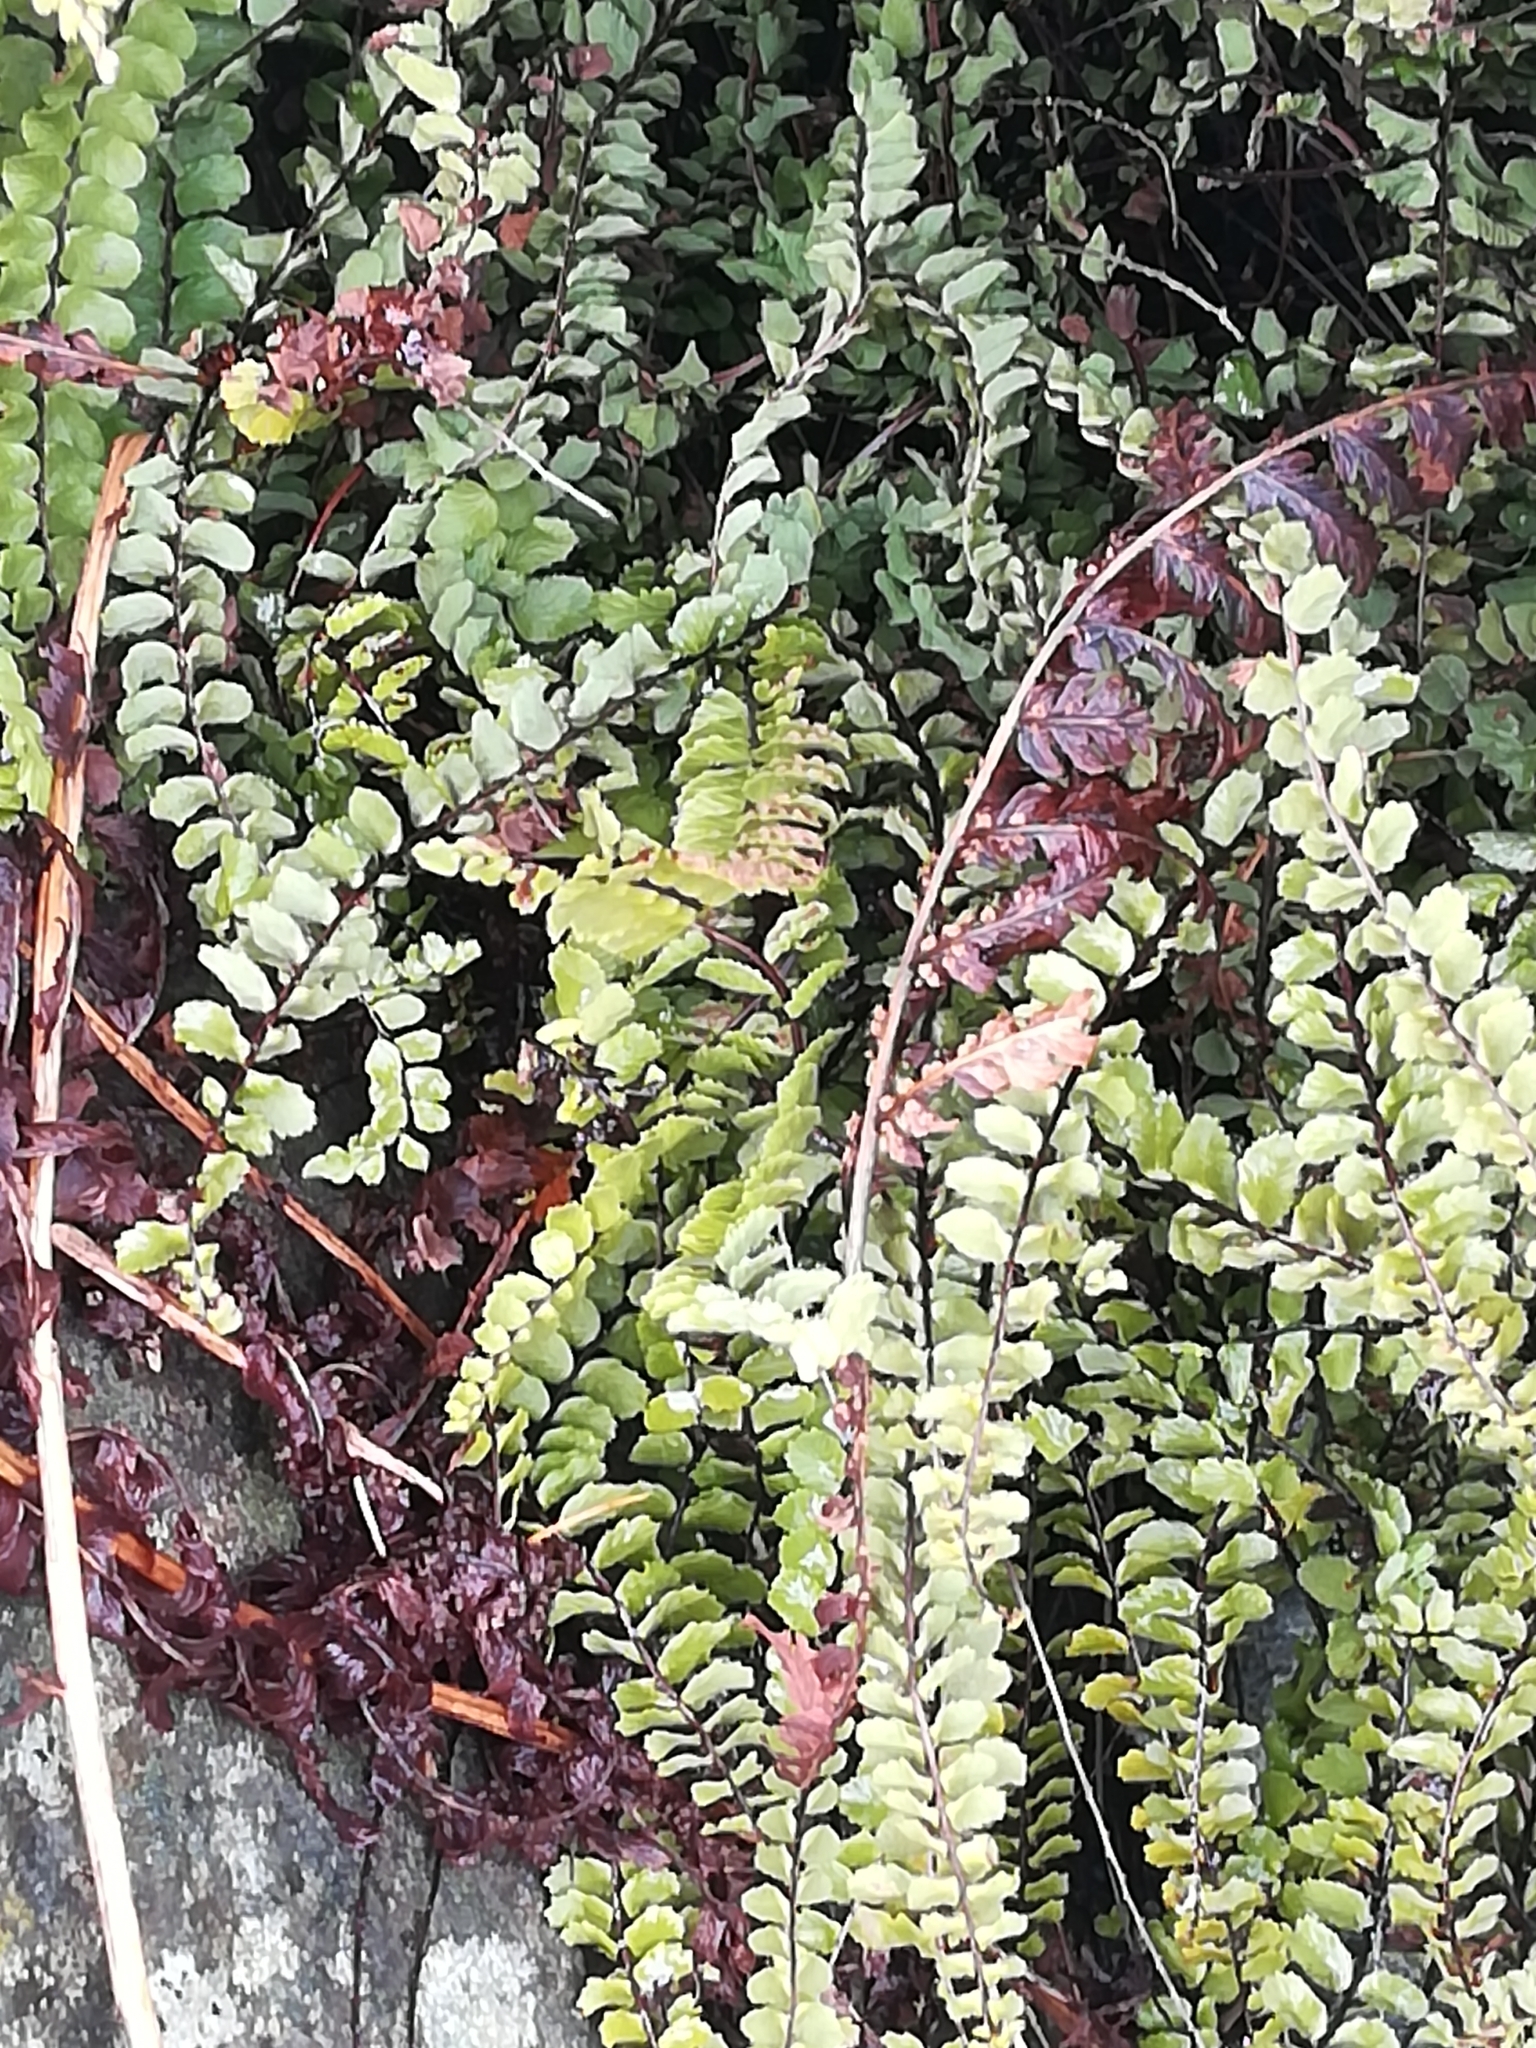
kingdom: Plantae
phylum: Tracheophyta
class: Polypodiopsida
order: Polypodiales
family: Aspleniaceae
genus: Asplenium
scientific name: Asplenium trichomanes
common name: Maidenhair spleenwort
